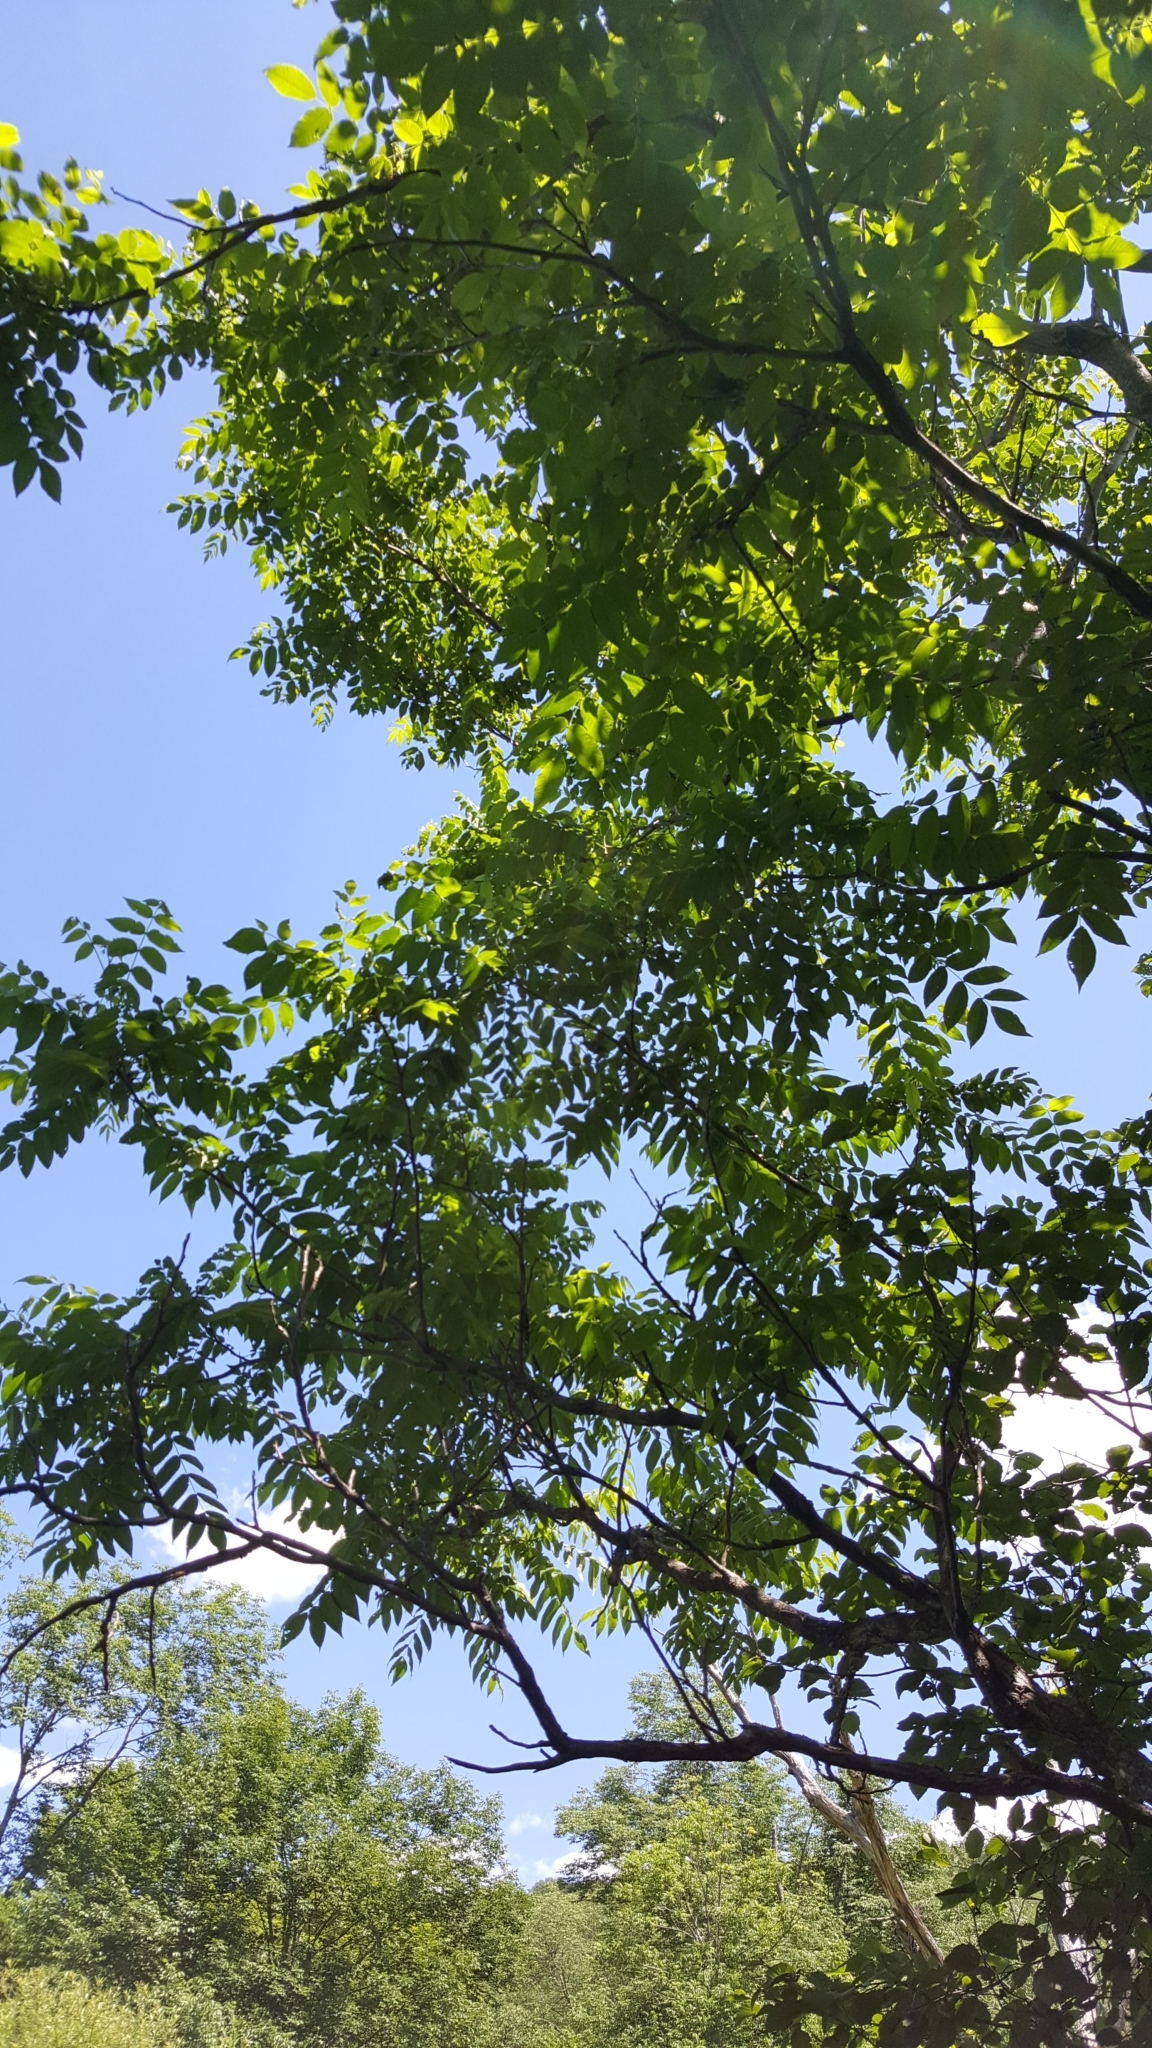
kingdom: Plantae
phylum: Tracheophyta
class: Magnoliopsida
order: Fagales
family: Juglandaceae
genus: Juglans
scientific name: Juglans cinerea
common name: Butternut
